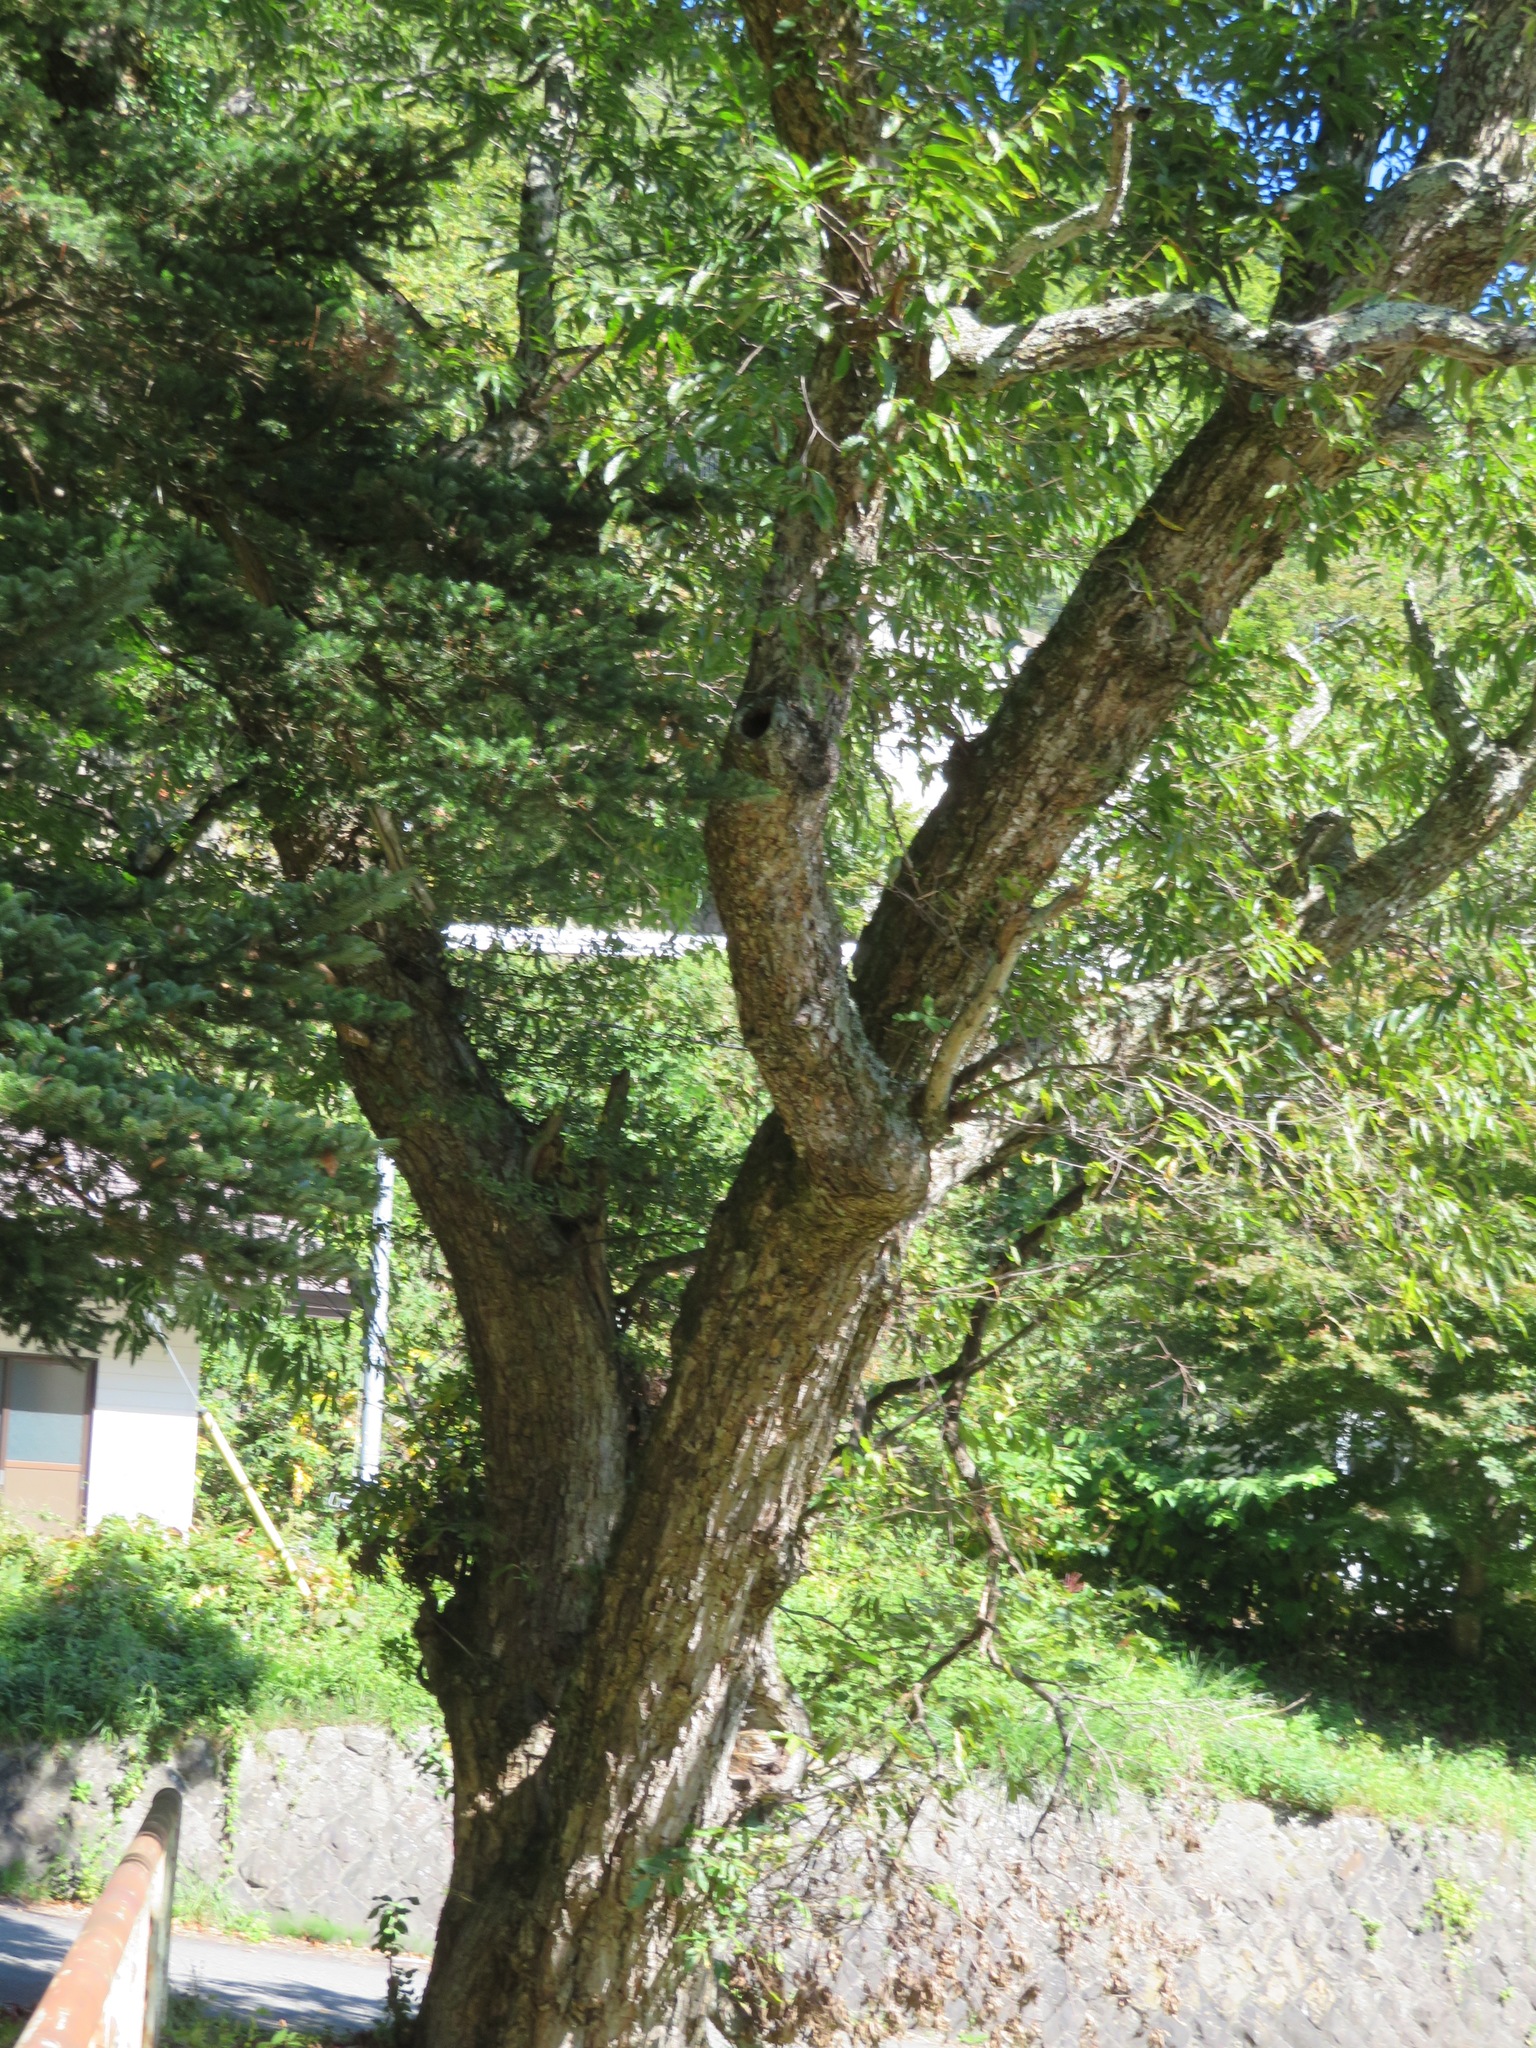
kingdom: Plantae
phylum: Tracheophyta
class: Magnoliopsida
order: Fagales
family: Fagaceae
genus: Castanea
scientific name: Castanea crenata
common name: Japanese chestnut
